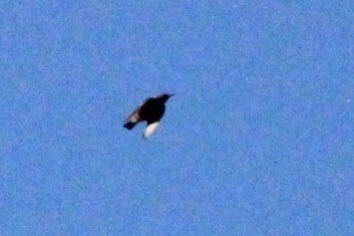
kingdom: Animalia
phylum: Chordata
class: Aves
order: Passeriformes
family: Sturnidae
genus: Sturnus
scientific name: Sturnus vulgaris
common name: Common starling
